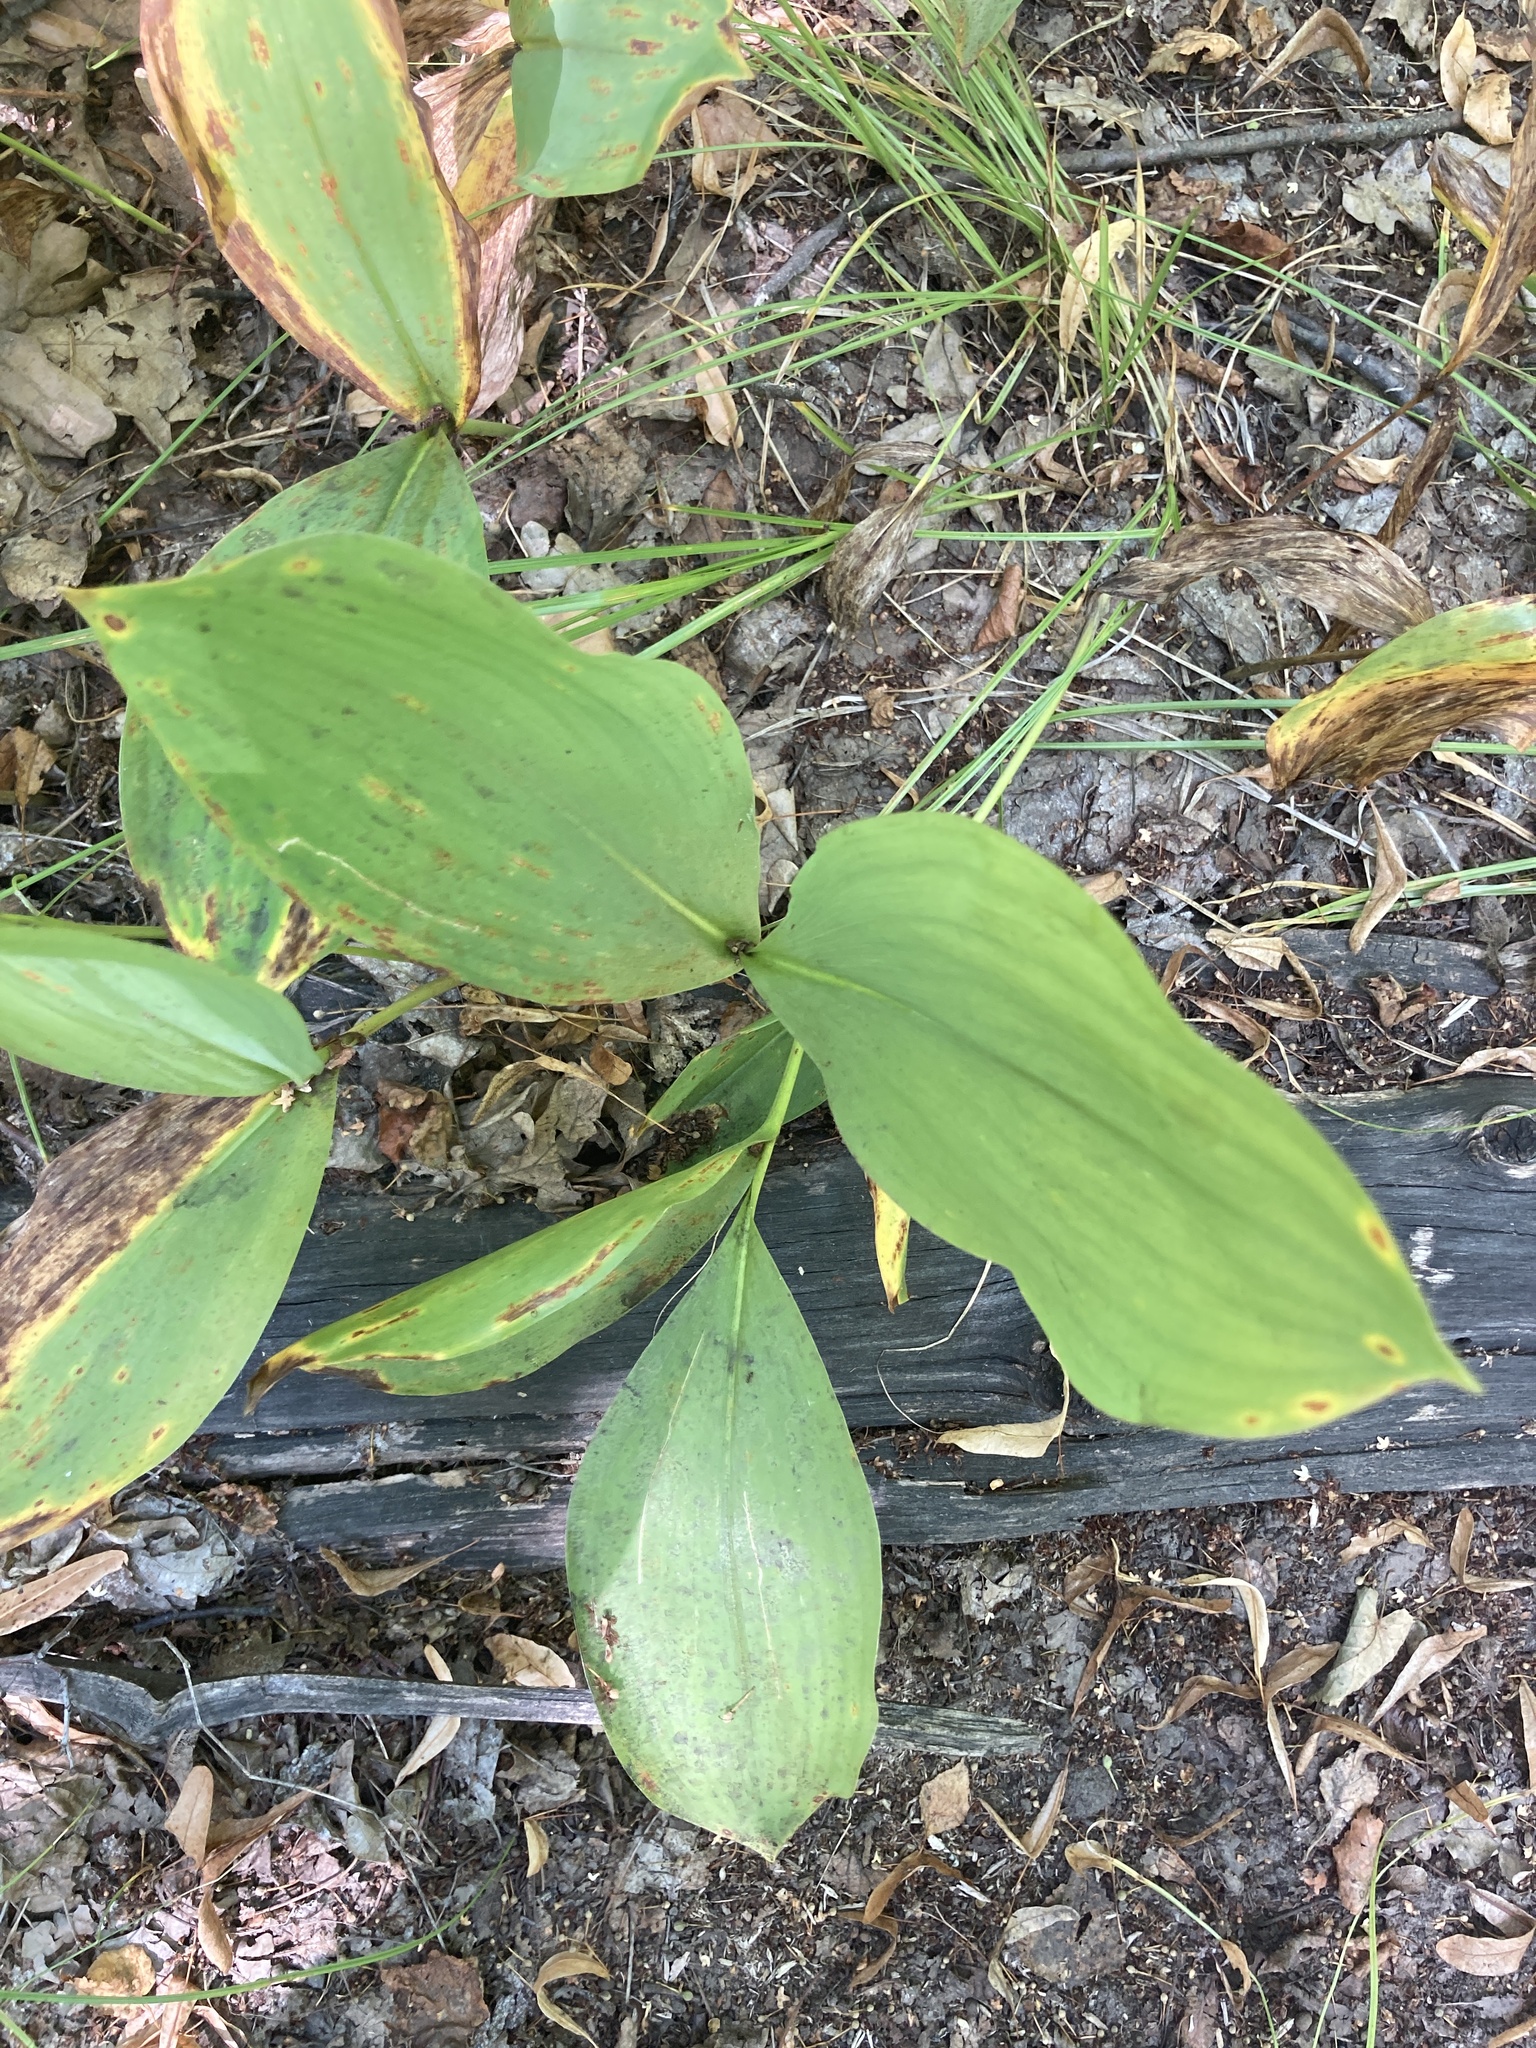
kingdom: Plantae
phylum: Tracheophyta
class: Liliopsida
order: Asparagales
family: Asparagaceae
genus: Convallaria
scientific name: Convallaria majalis
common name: Lily-of-the-valley
